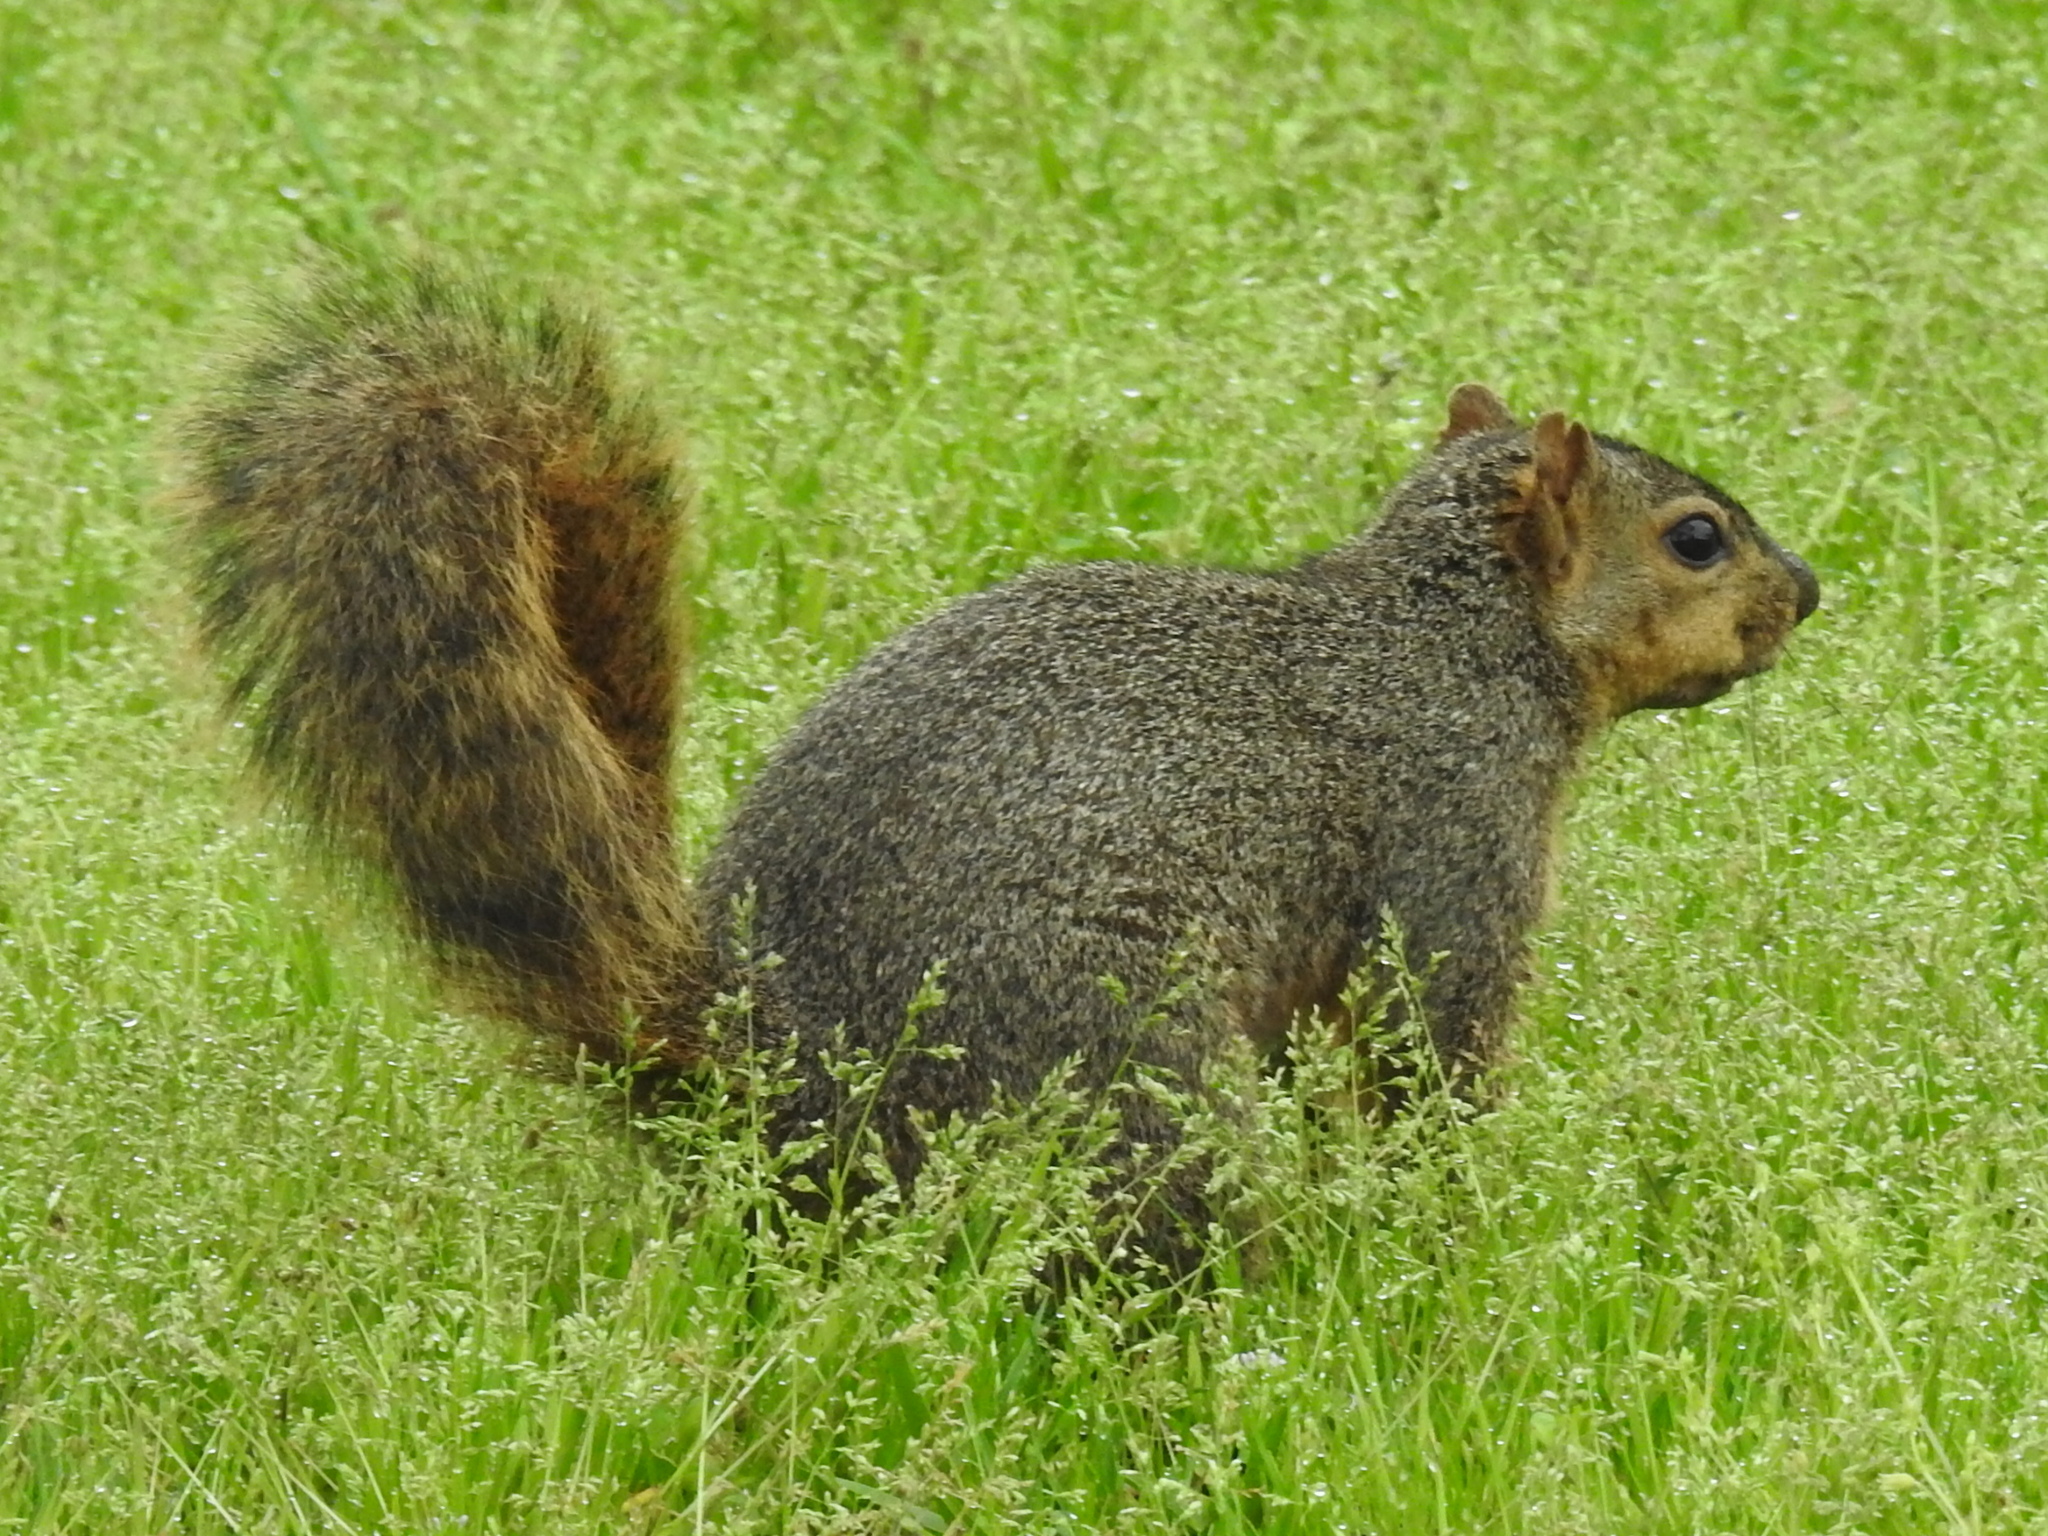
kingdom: Animalia
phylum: Chordata
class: Mammalia
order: Rodentia
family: Sciuridae
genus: Sciurus
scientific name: Sciurus niger
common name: Fox squirrel
